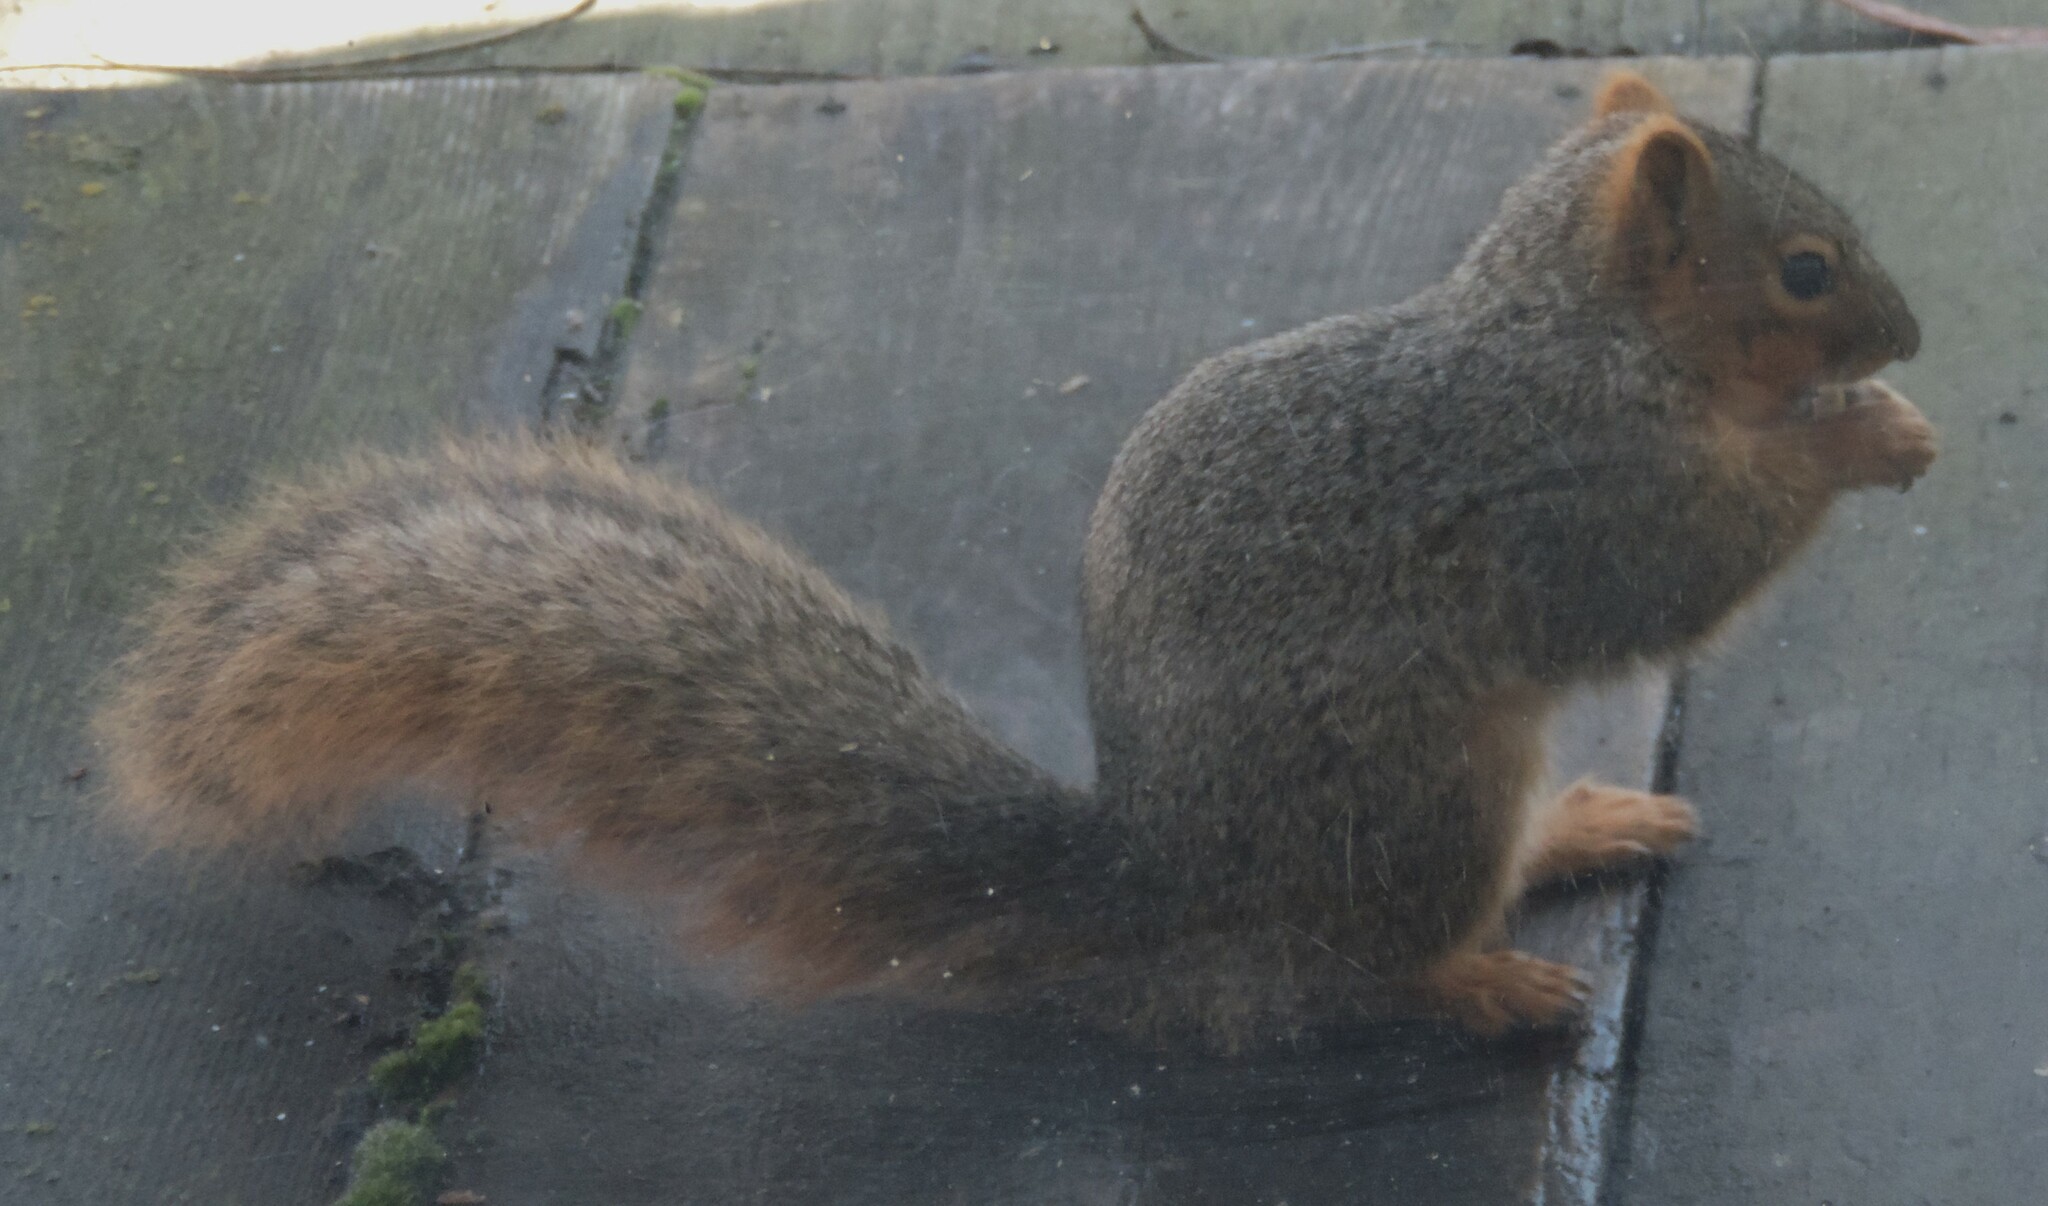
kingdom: Animalia
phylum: Chordata
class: Mammalia
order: Rodentia
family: Sciuridae
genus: Sciurus
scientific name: Sciurus niger
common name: Fox squirrel
